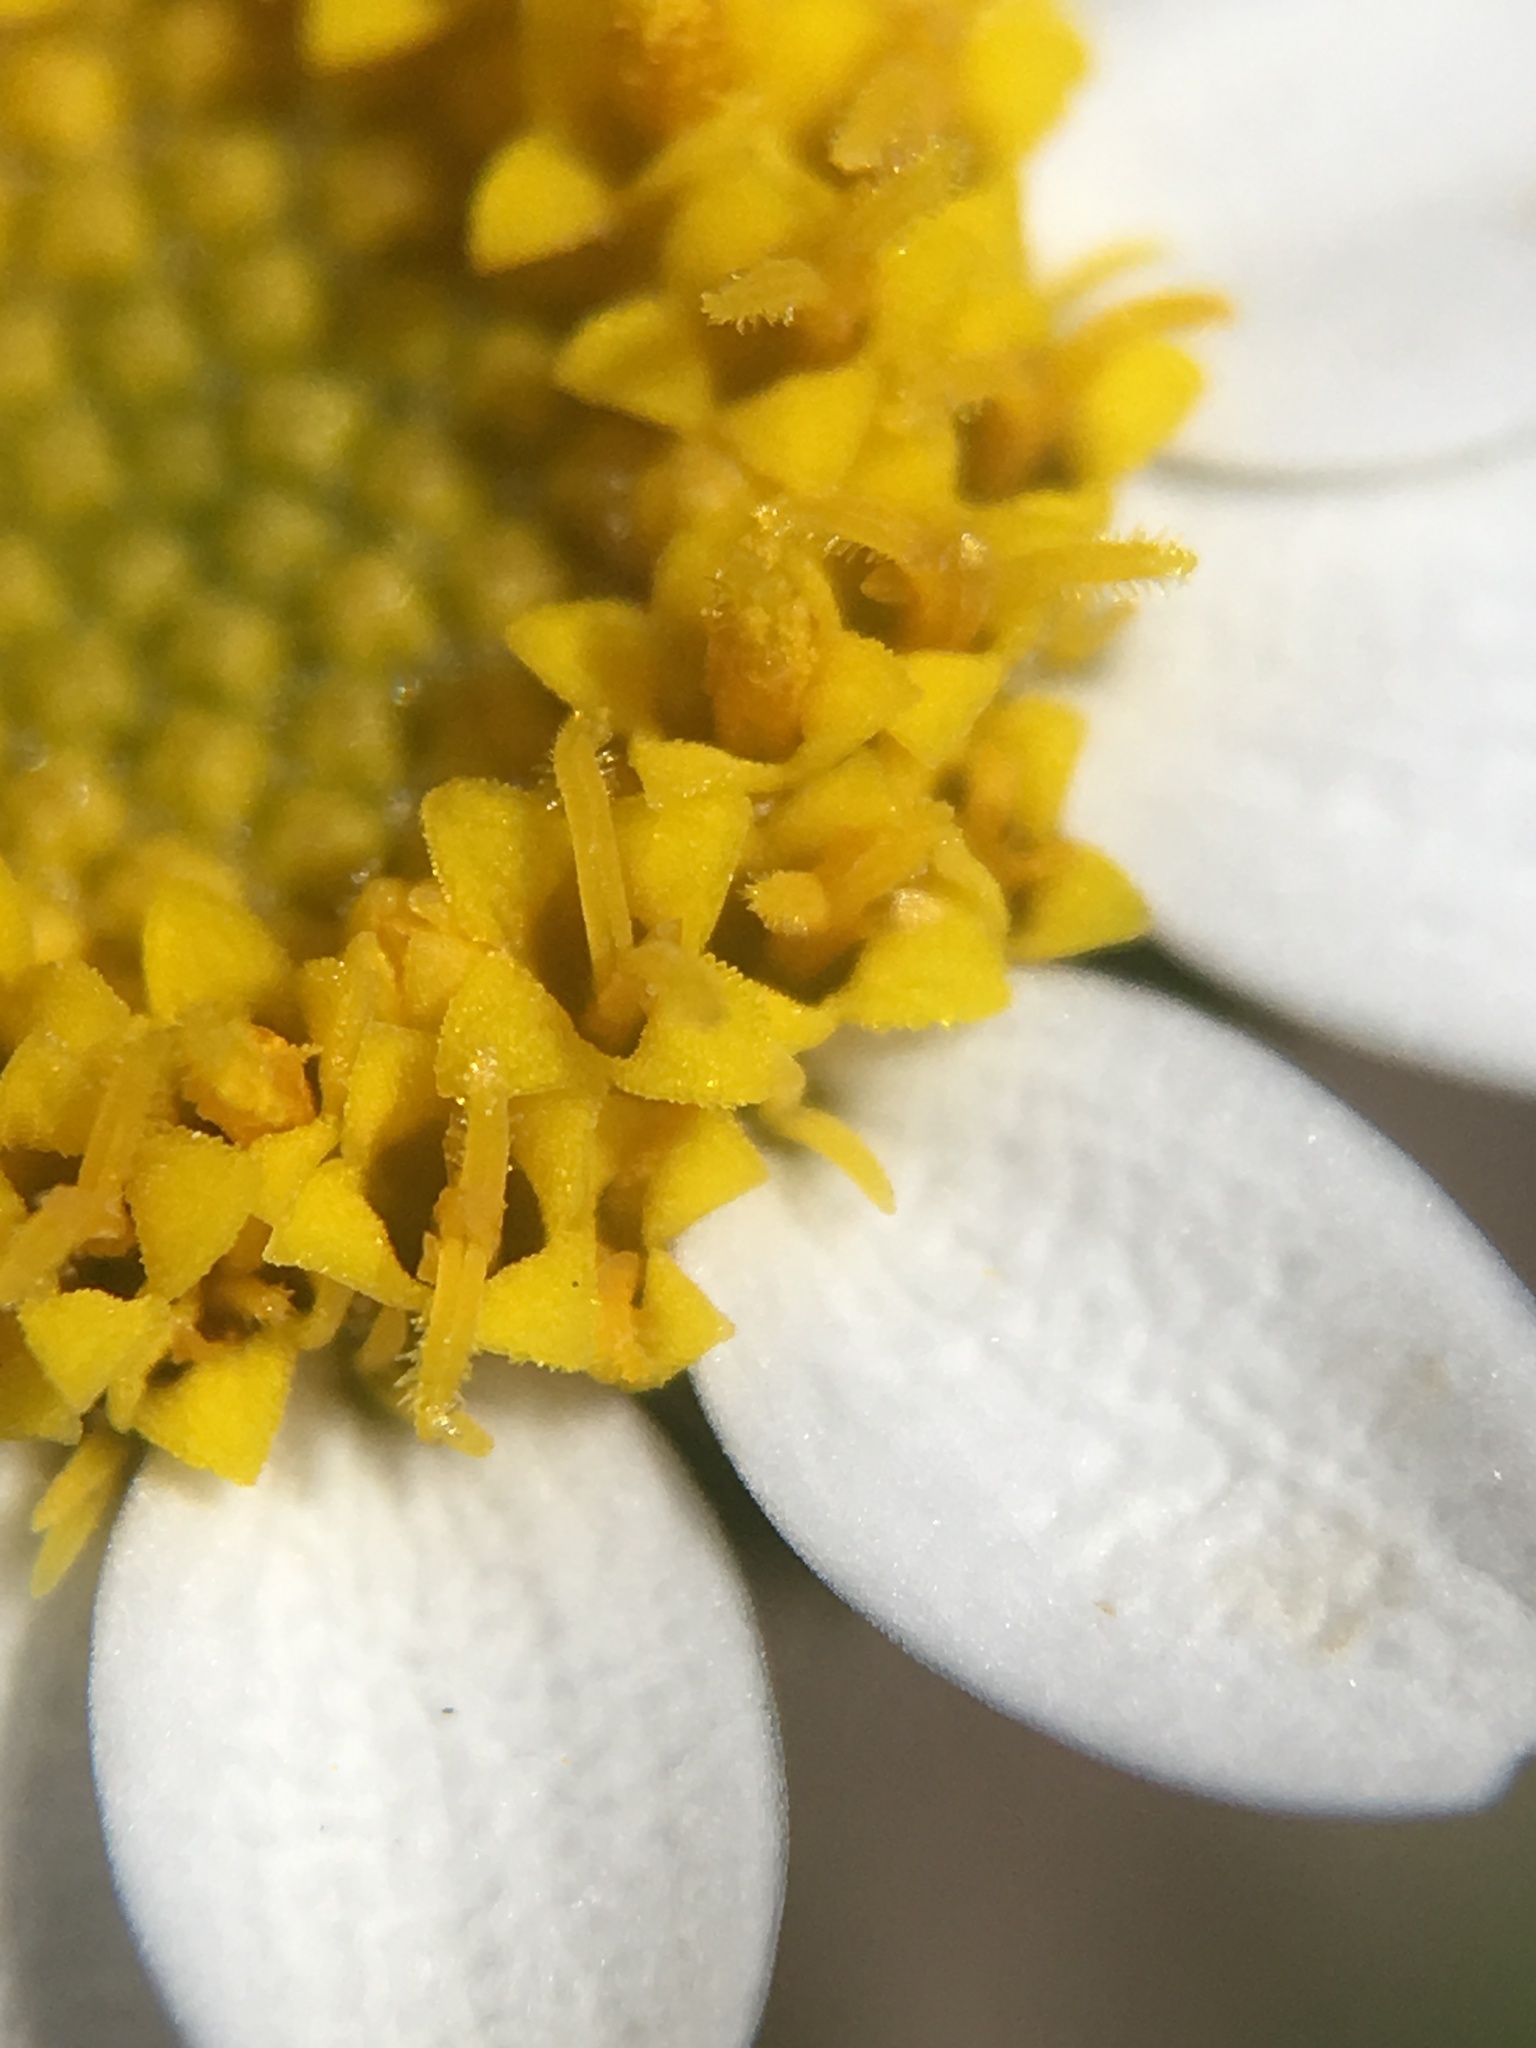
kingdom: Plantae
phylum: Tracheophyta
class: Magnoliopsida
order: Asterales
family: Asteraceae
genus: Laphamia
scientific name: Laphamia emoryi
